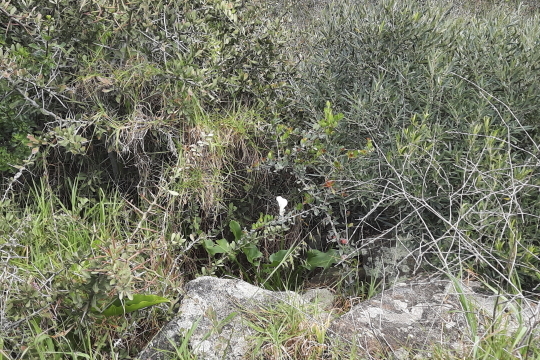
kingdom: Plantae
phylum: Tracheophyta
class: Liliopsida
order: Alismatales
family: Araceae
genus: Zantedeschia
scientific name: Zantedeschia aethiopica
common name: Altar-lily
